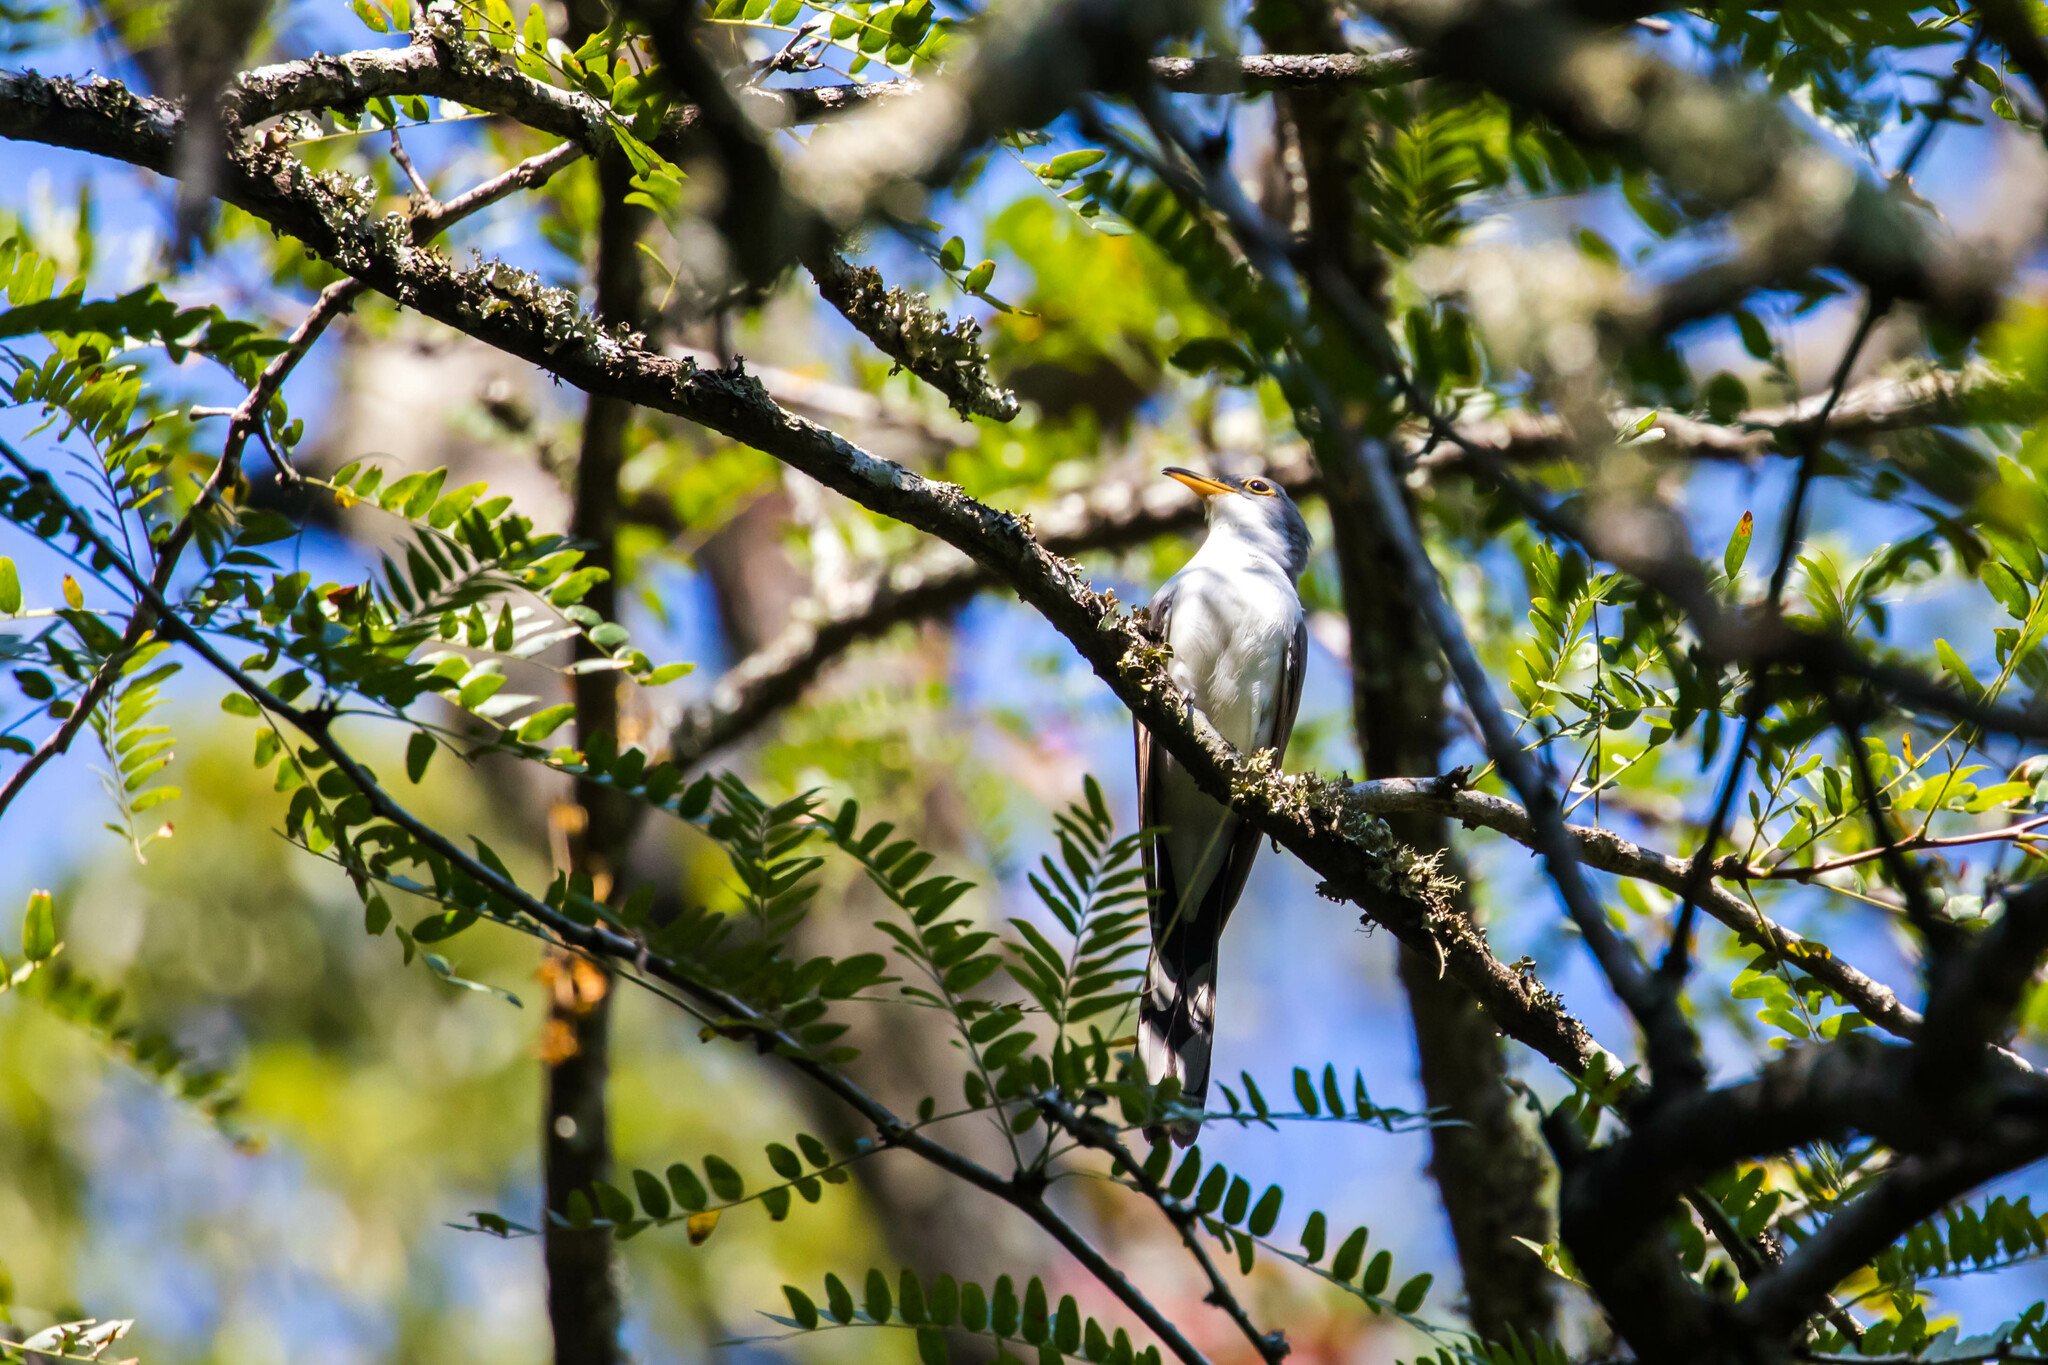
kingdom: Animalia
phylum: Chordata
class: Aves
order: Cuculiformes
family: Cuculidae
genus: Coccyzus
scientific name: Coccyzus americanus
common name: Yellow-billed cuckoo
